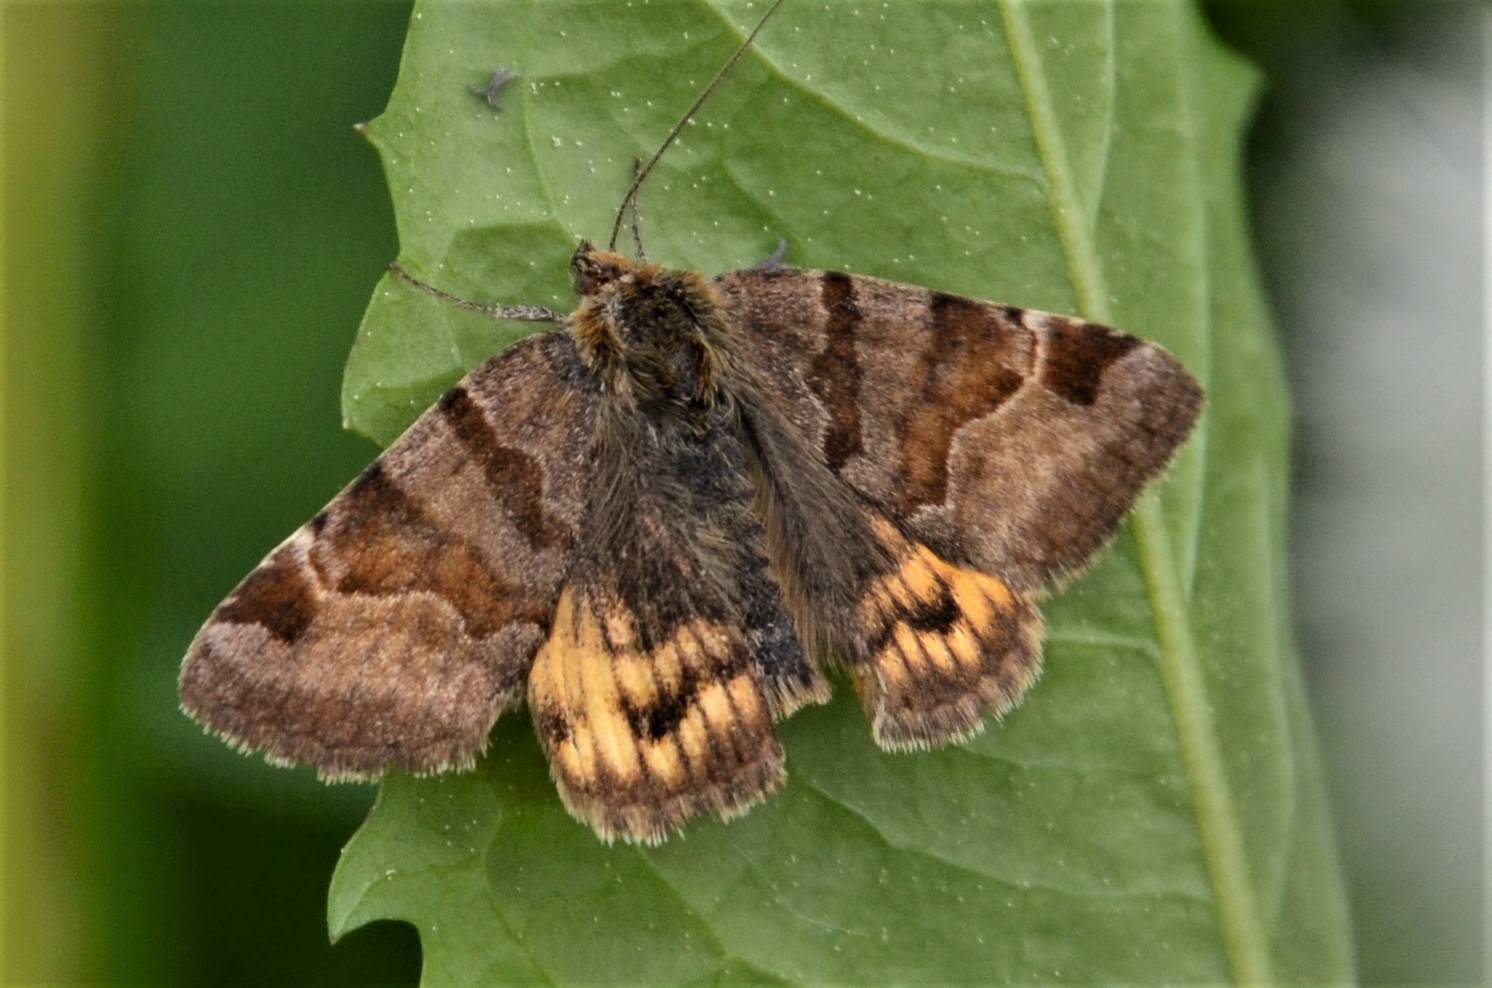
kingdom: Animalia
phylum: Arthropoda
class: Insecta
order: Lepidoptera
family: Erebidae
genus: Euclidia
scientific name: Euclidia glyphica
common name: Burnet companion
